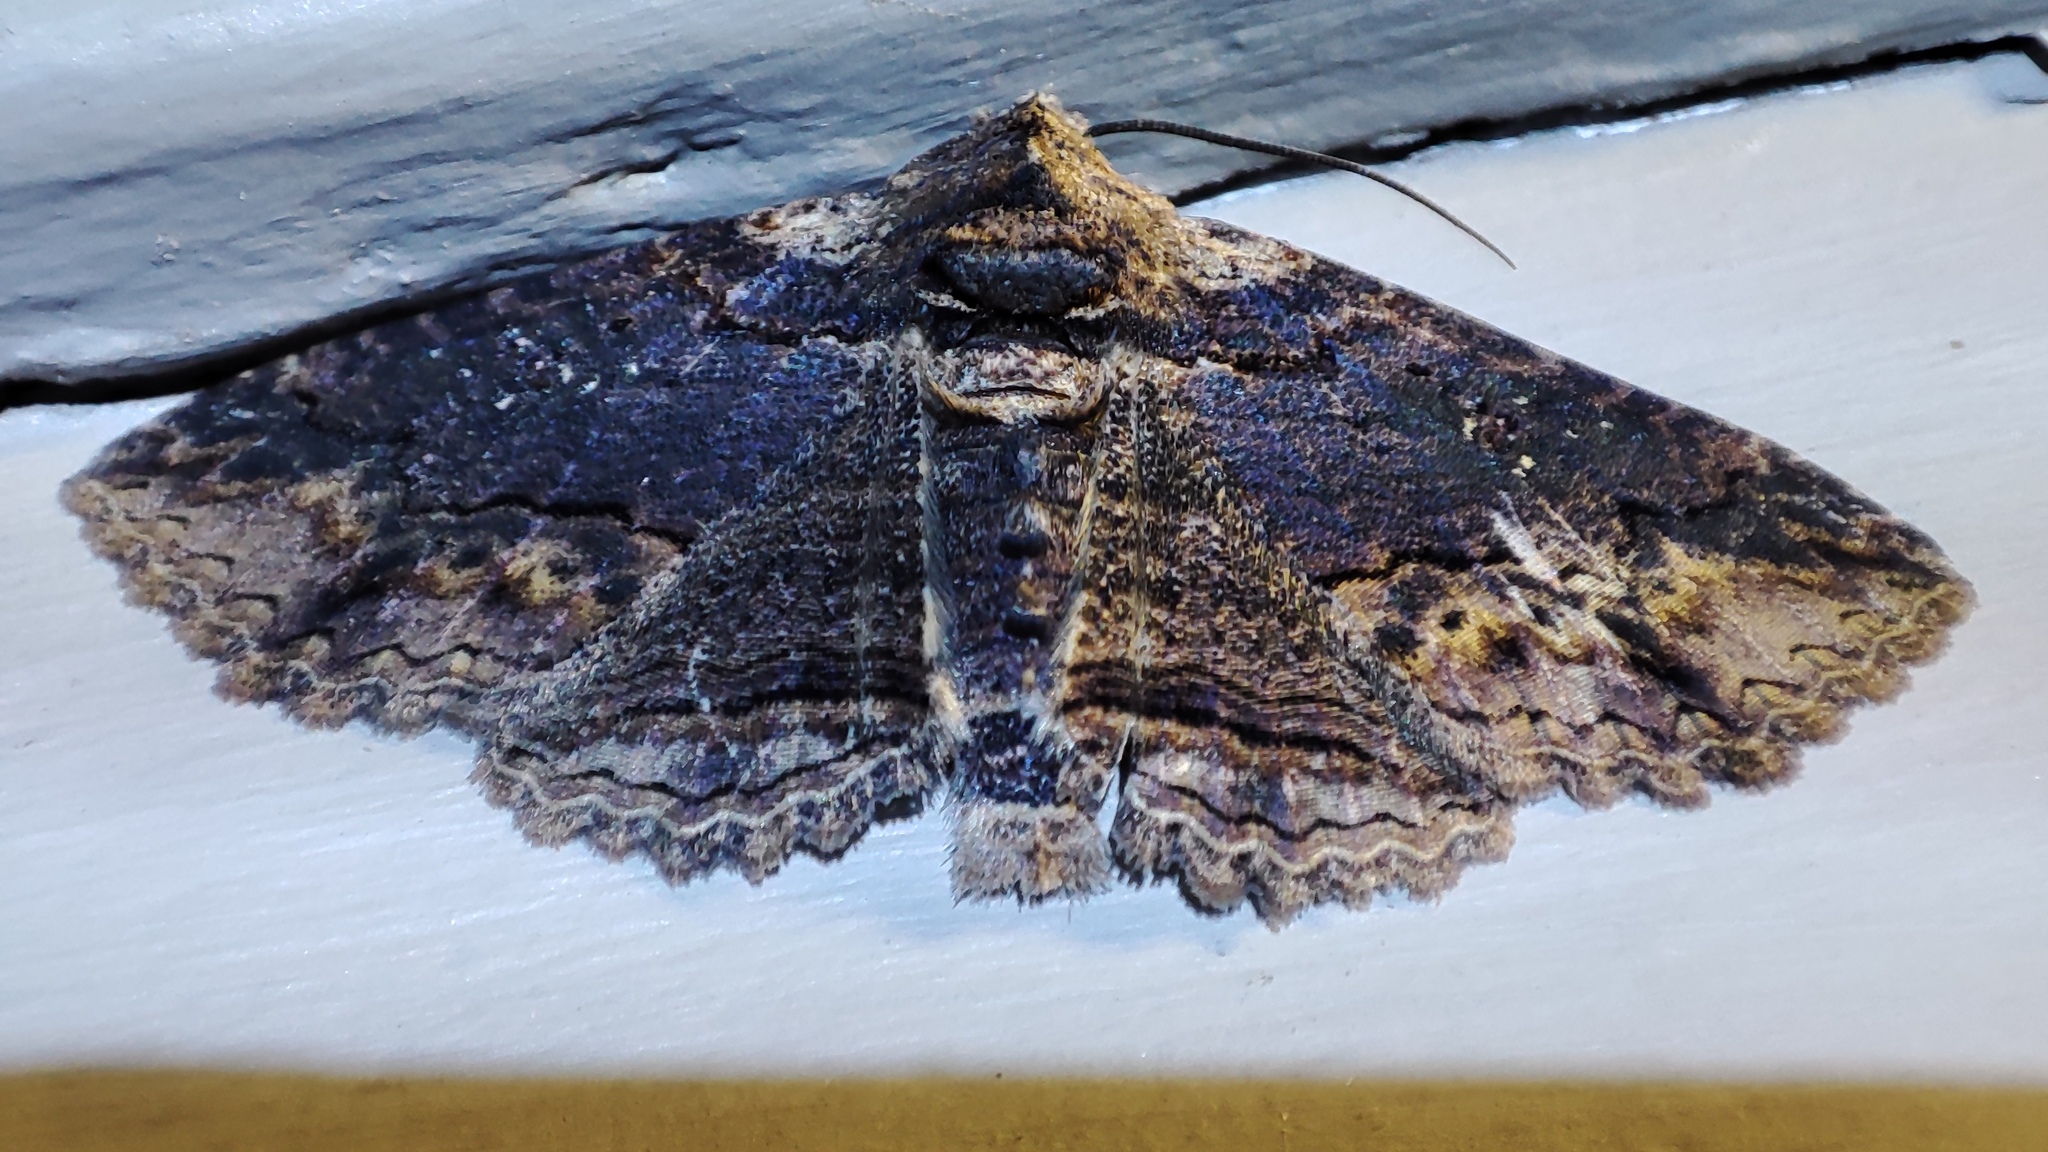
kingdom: Animalia
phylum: Arthropoda
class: Insecta
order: Lepidoptera
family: Erebidae
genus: Pericyma
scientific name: Pericyma mendax
